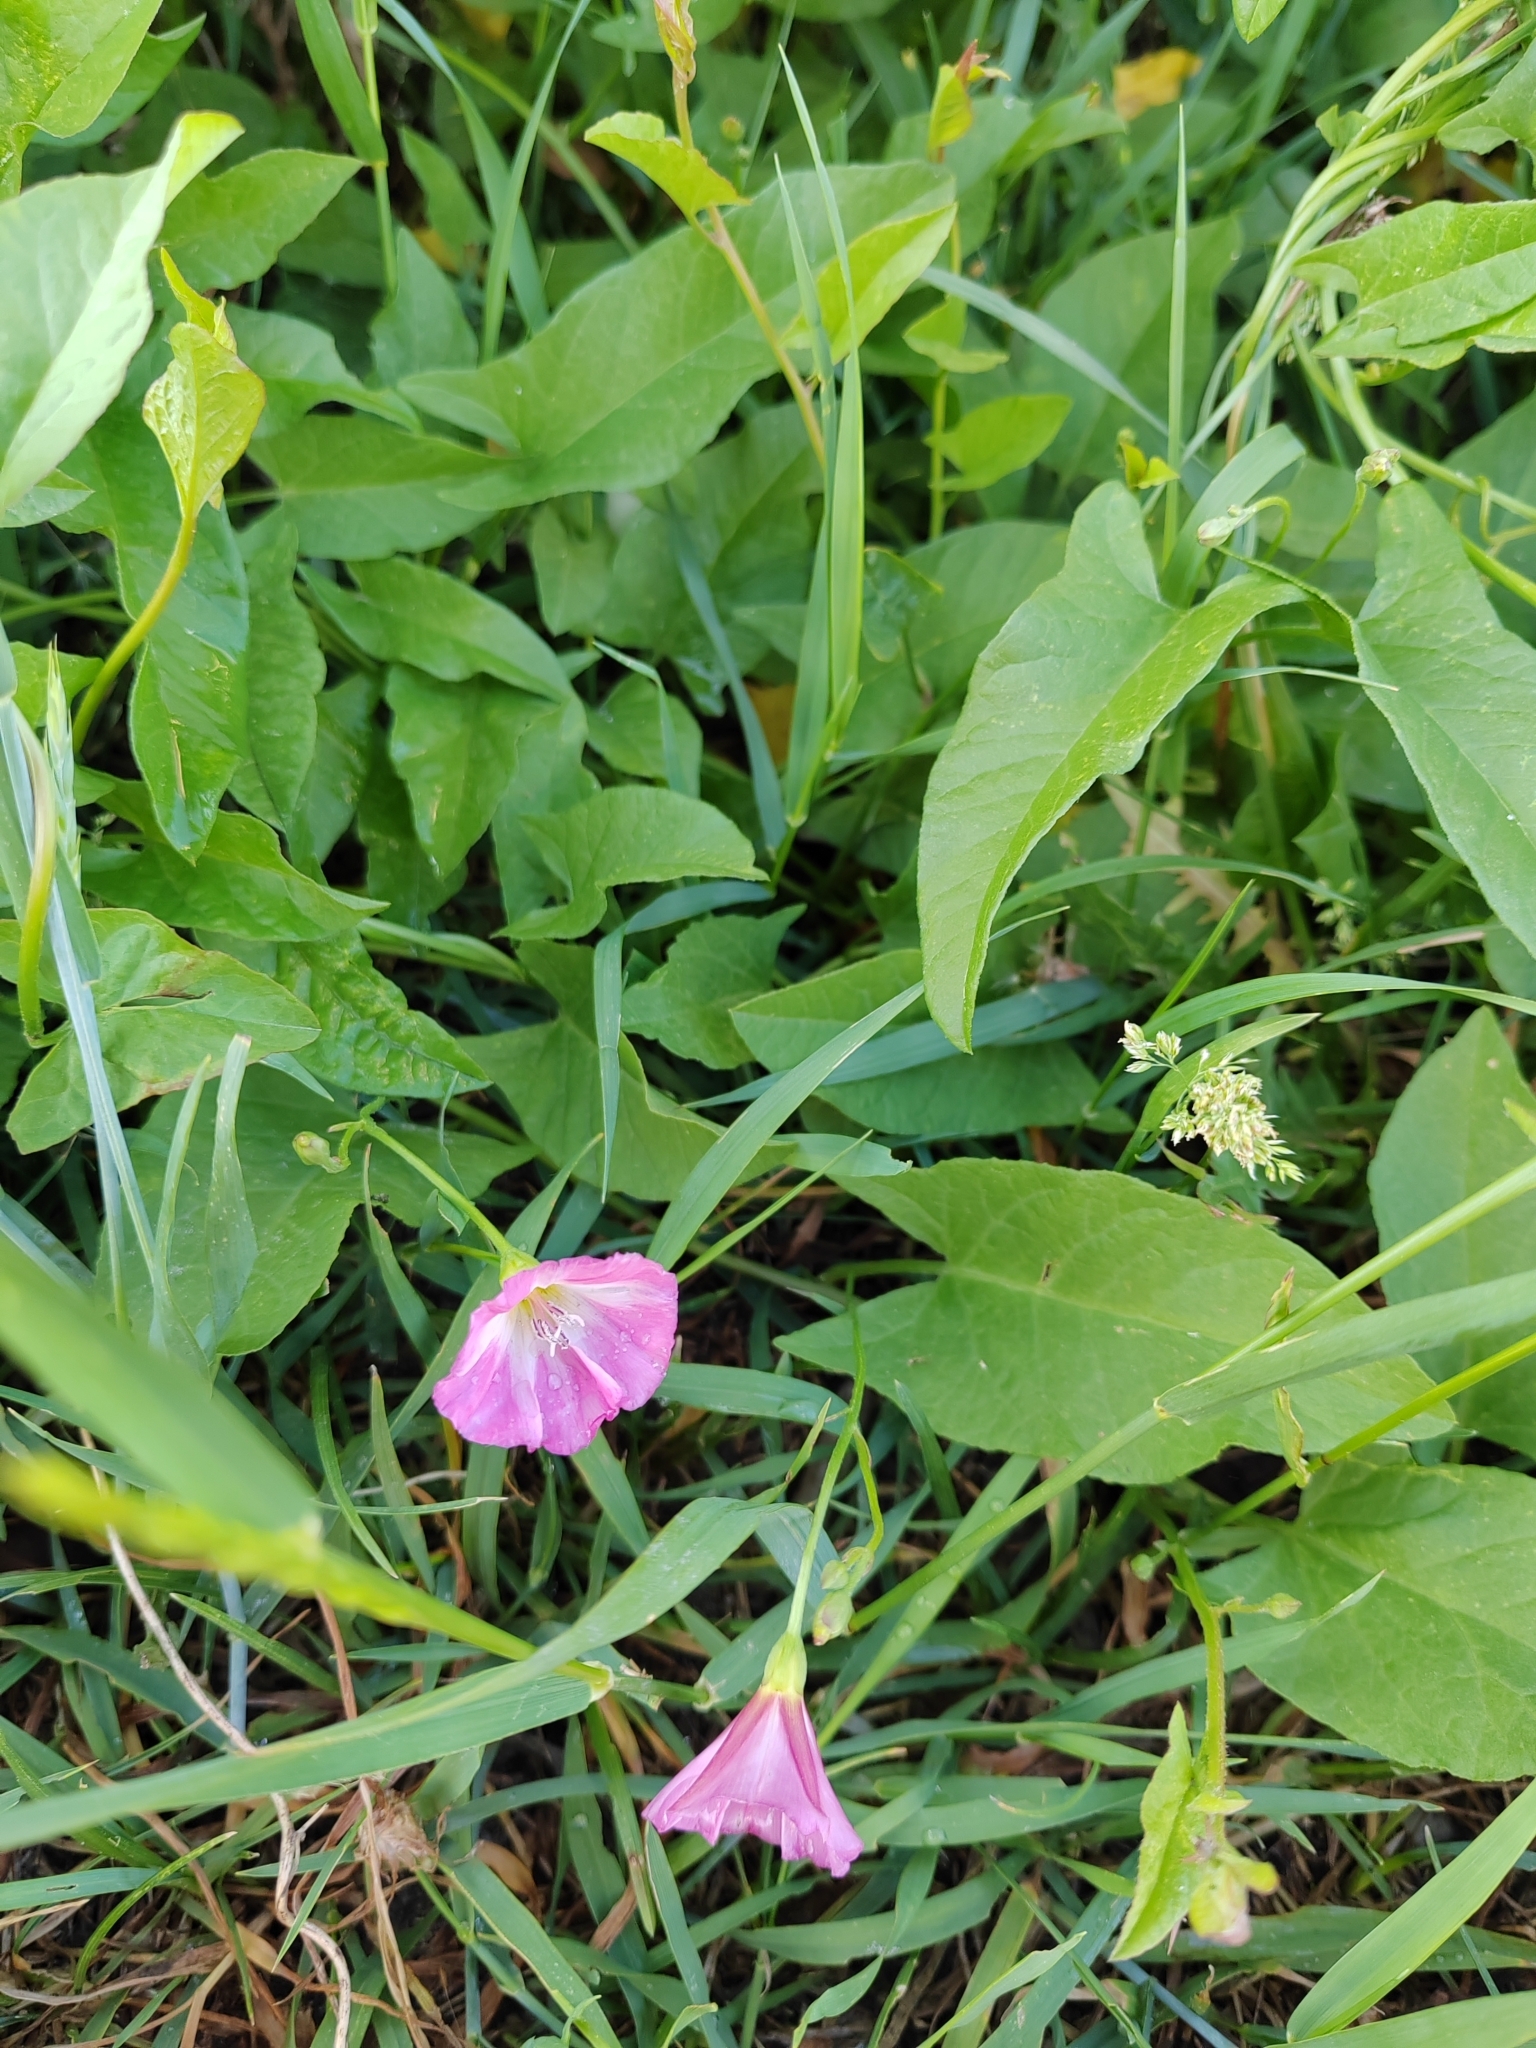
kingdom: Plantae
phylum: Tracheophyta
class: Magnoliopsida
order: Solanales
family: Convolvulaceae
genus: Convolvulus
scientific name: Convolvulus arvensis
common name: Field bindweed
